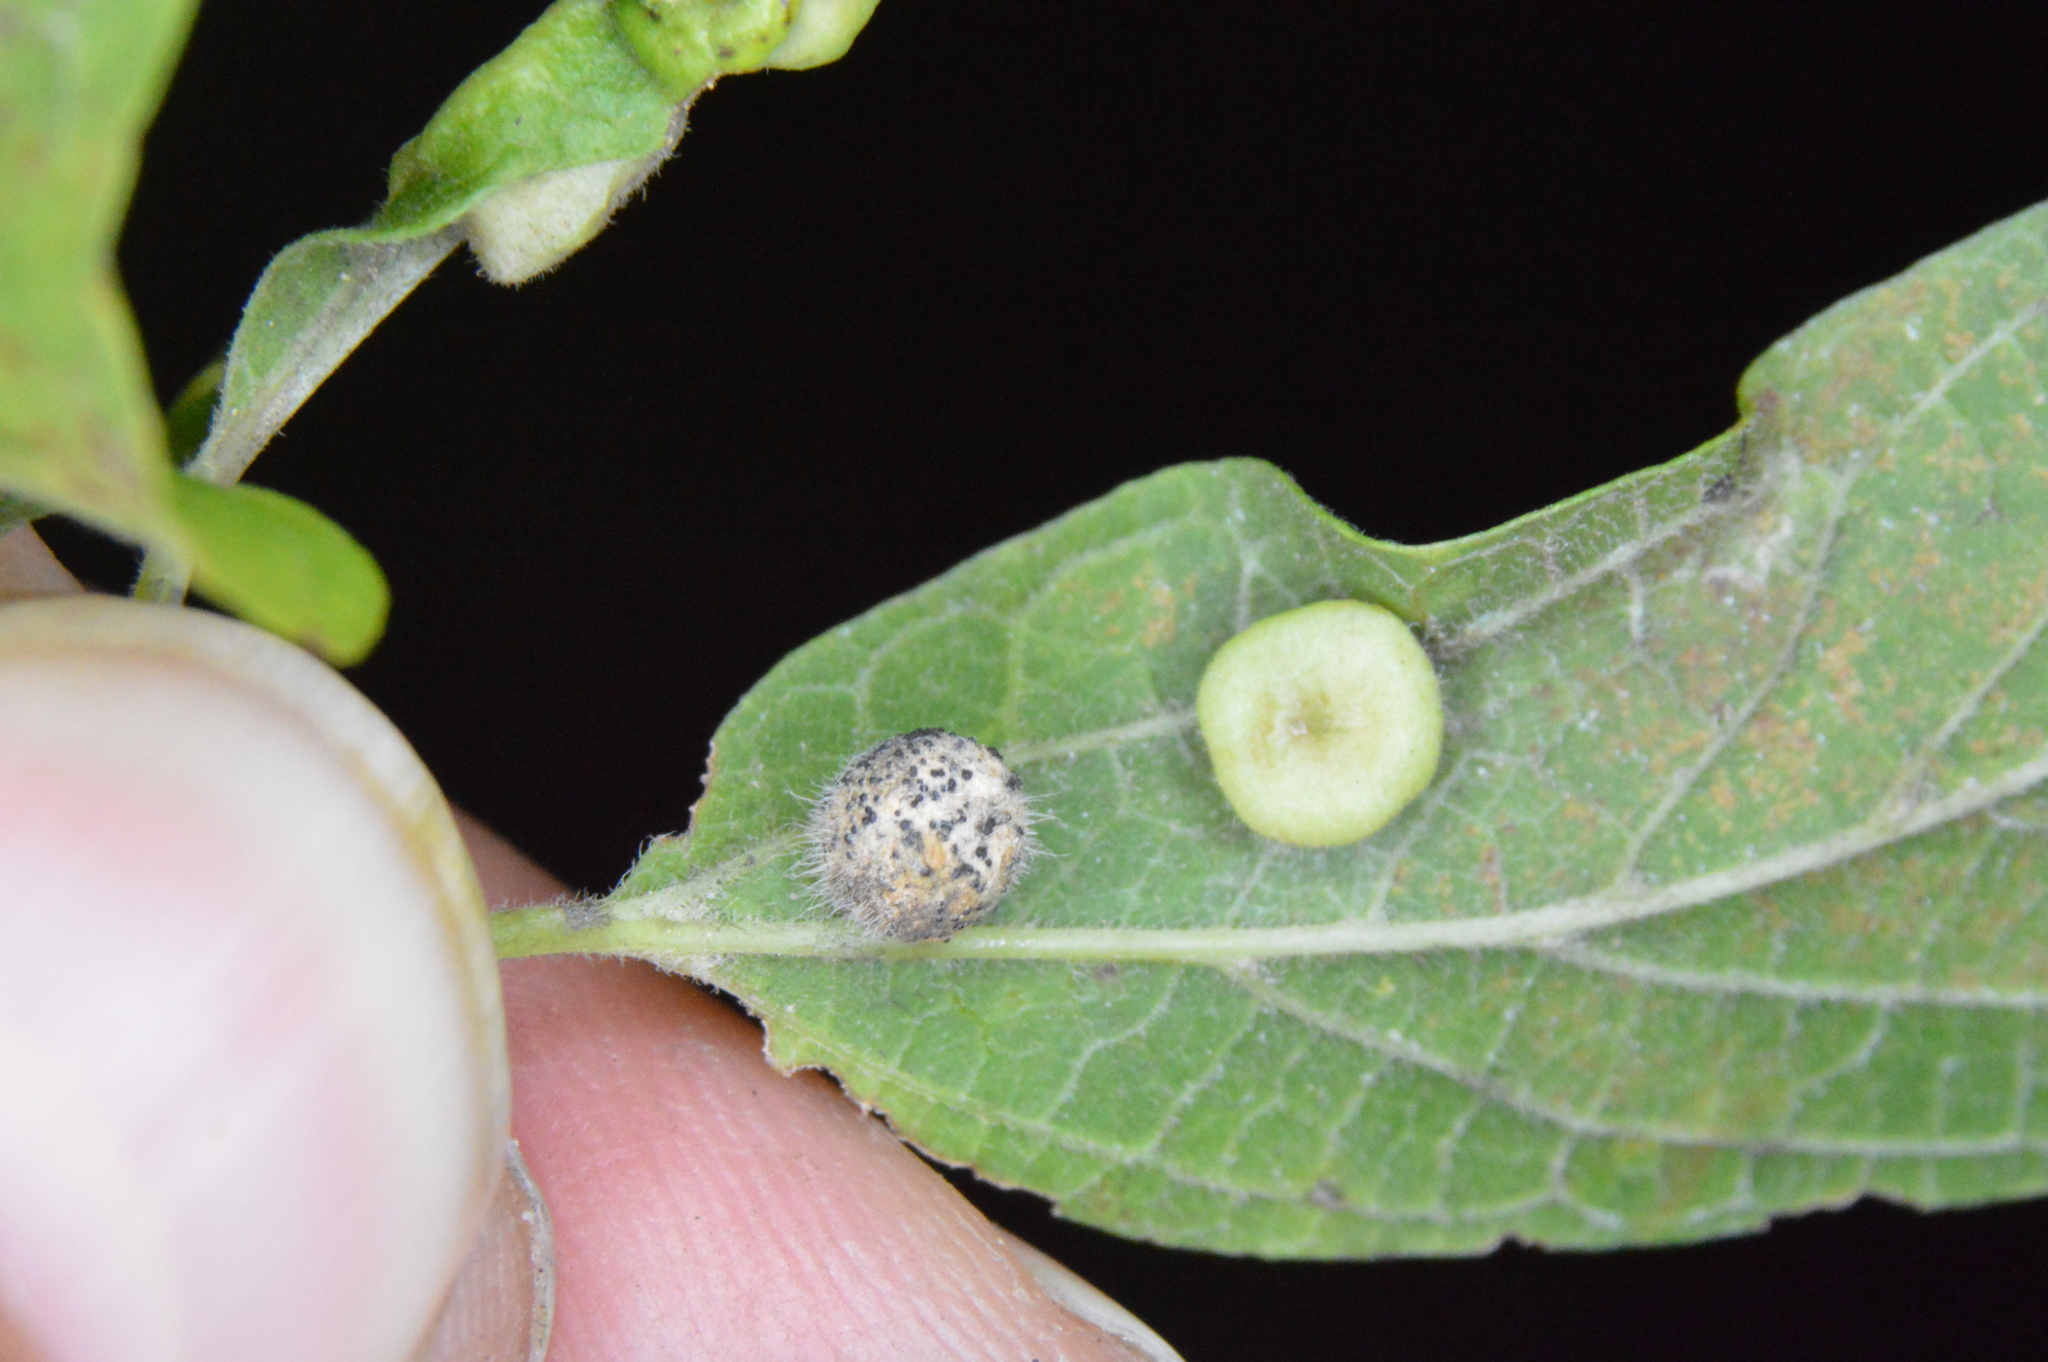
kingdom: Animalia
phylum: Arthropoda
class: Insecta
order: Diptera
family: Cecidomyiidae
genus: Celticecis
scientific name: Celticecis pubescens
